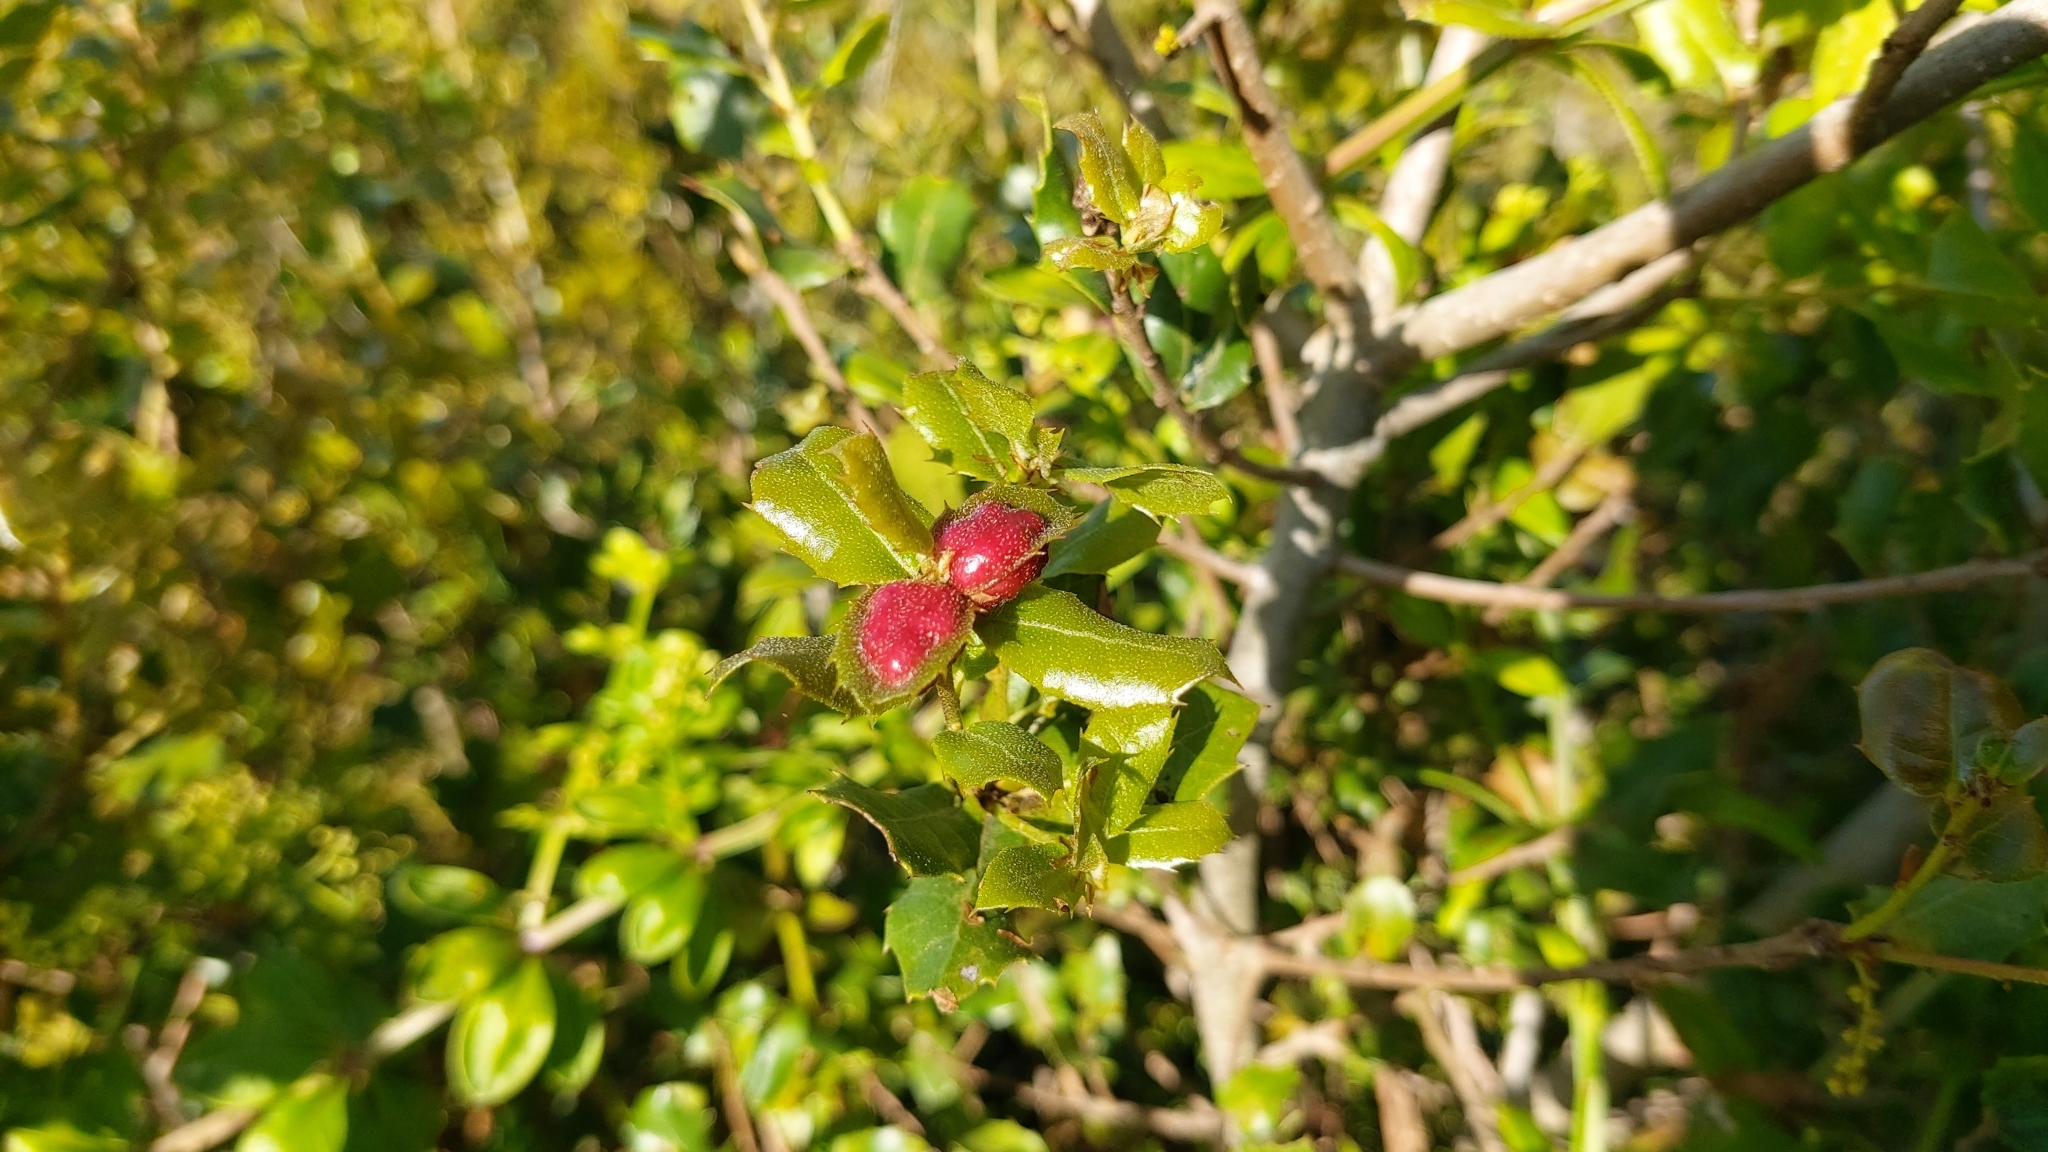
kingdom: Animalia
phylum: Arthropoda
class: Insecta
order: Hymenoptera
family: Cynipidae
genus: Plagiotrochus
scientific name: Plagiotrochus quercusilicis
